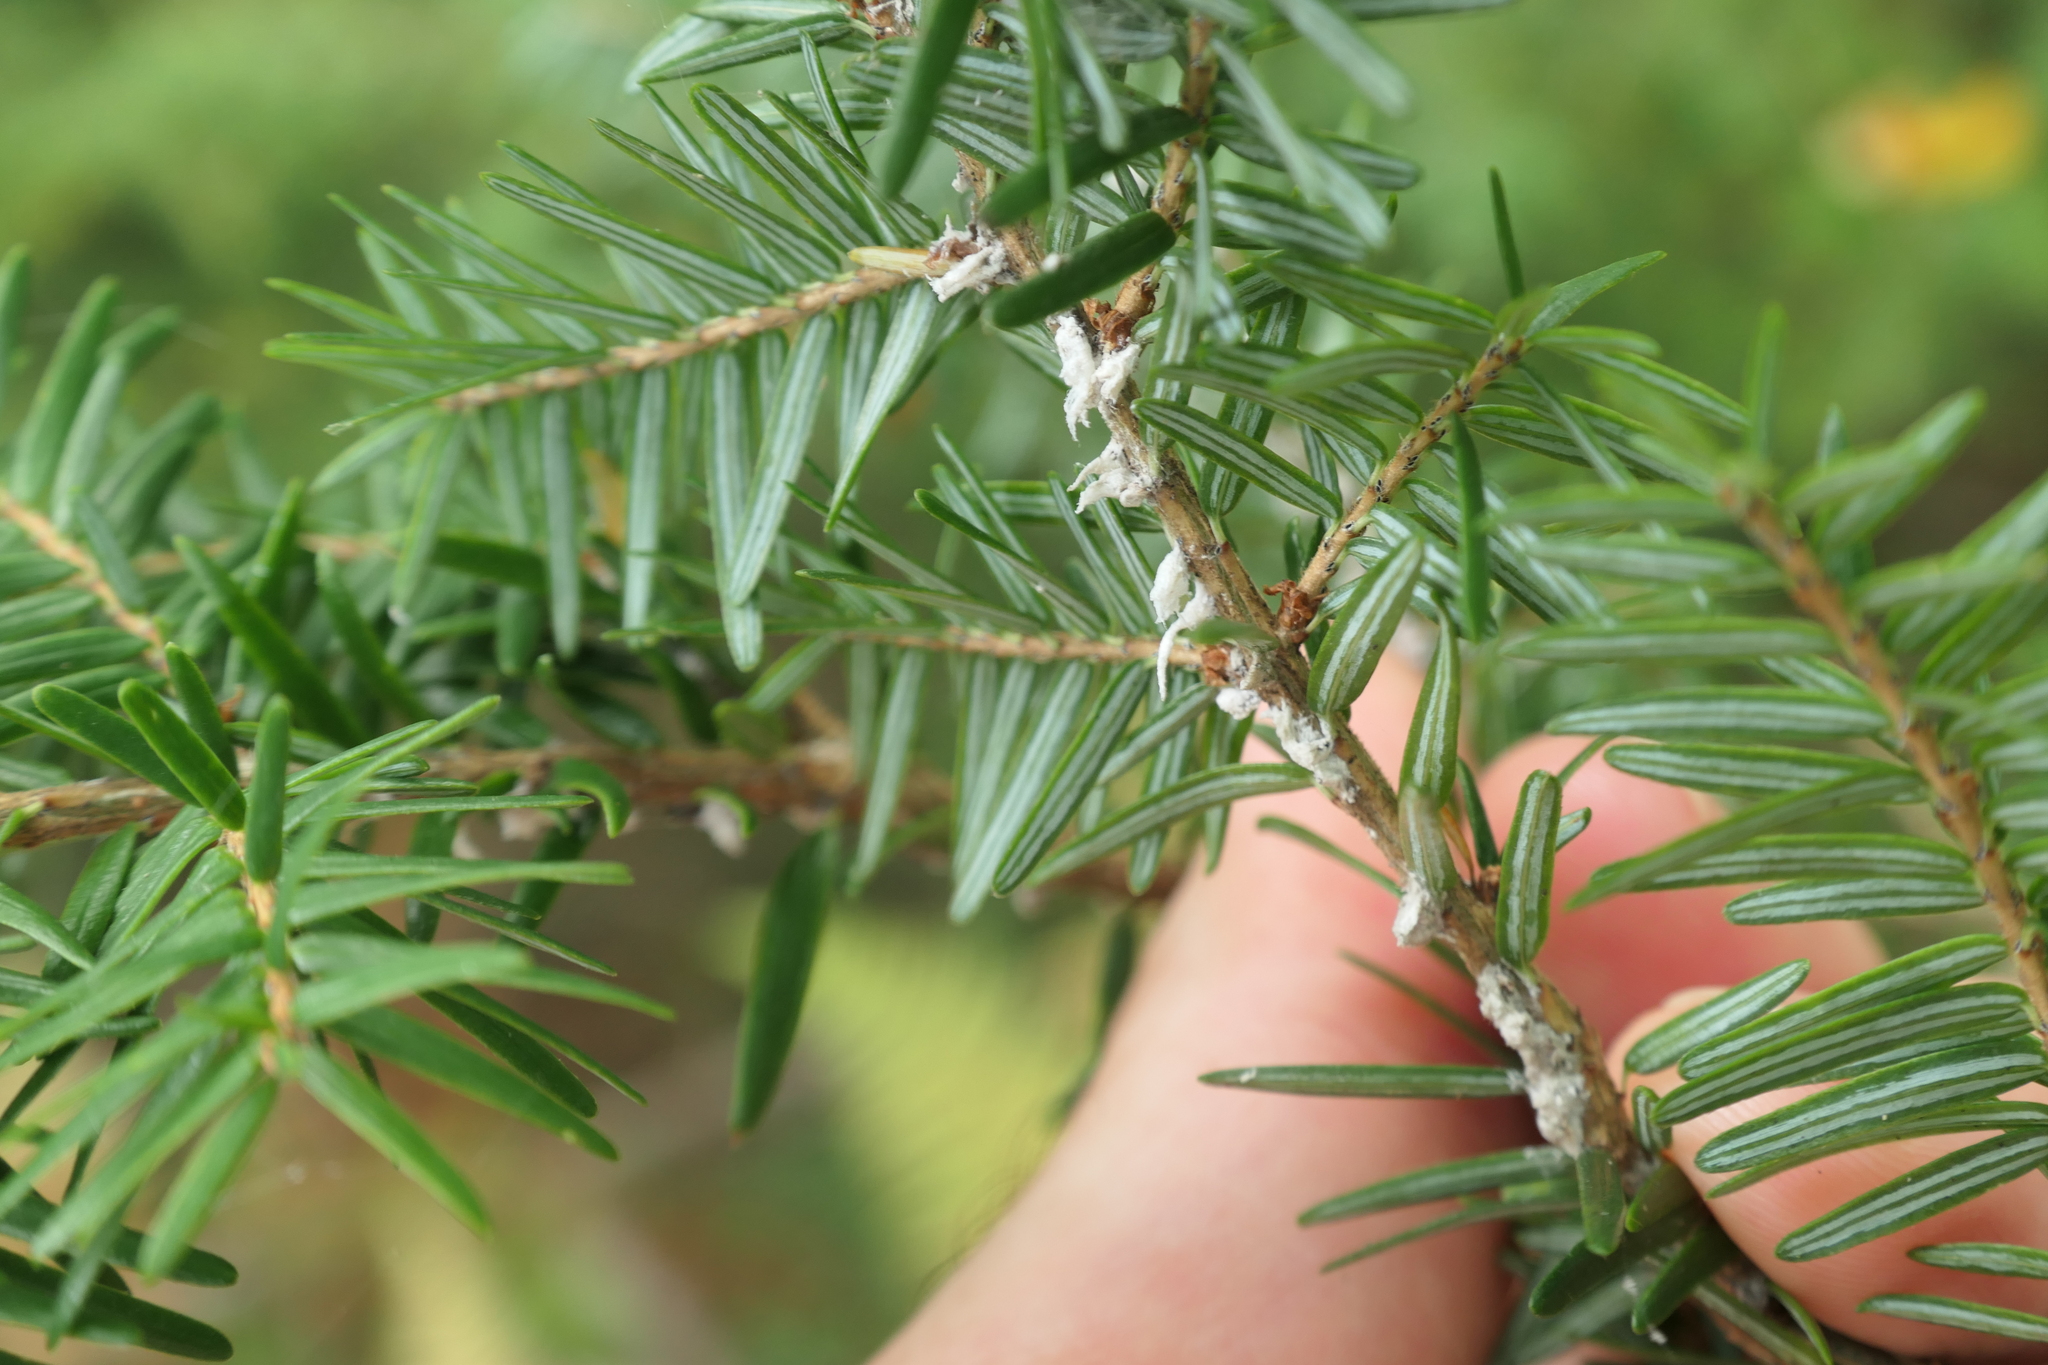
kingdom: Animalia
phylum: Arthropoda
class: Insecta
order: Hemiptera
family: Adelgidae
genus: Adelges
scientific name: Adelges tsugae
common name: Hemlock woolly adelgid
